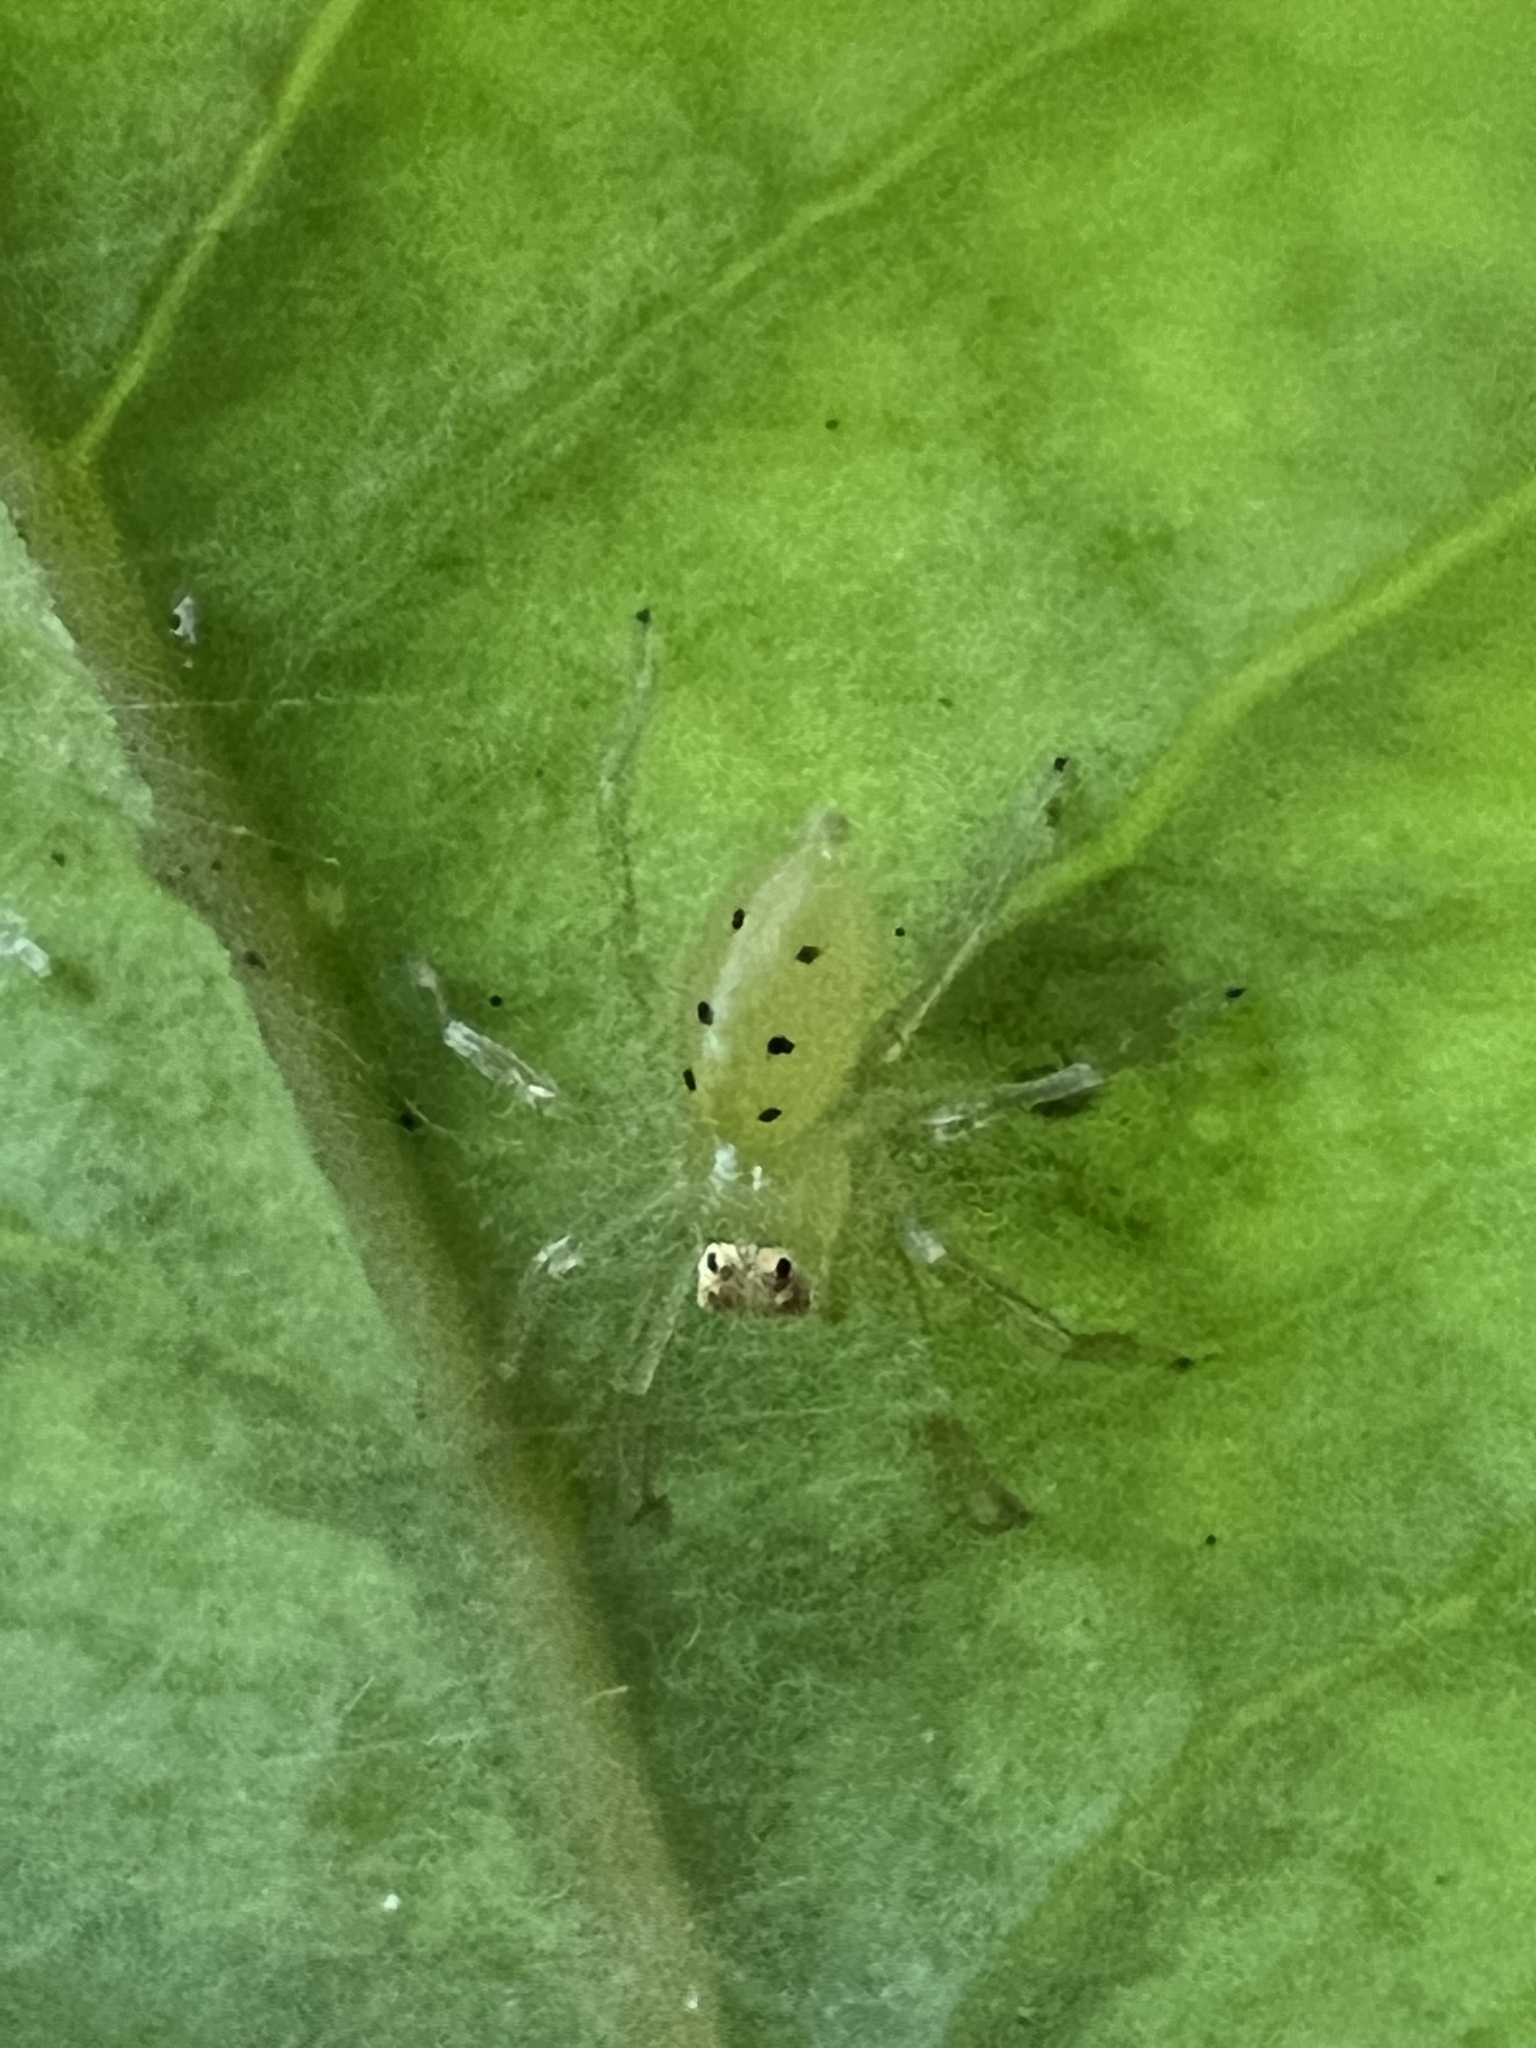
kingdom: Animalia
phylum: Arthropoda
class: Arachnida
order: Araneae
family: Salticidae
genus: Lyssomanes
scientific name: Lyssomanes viridis
